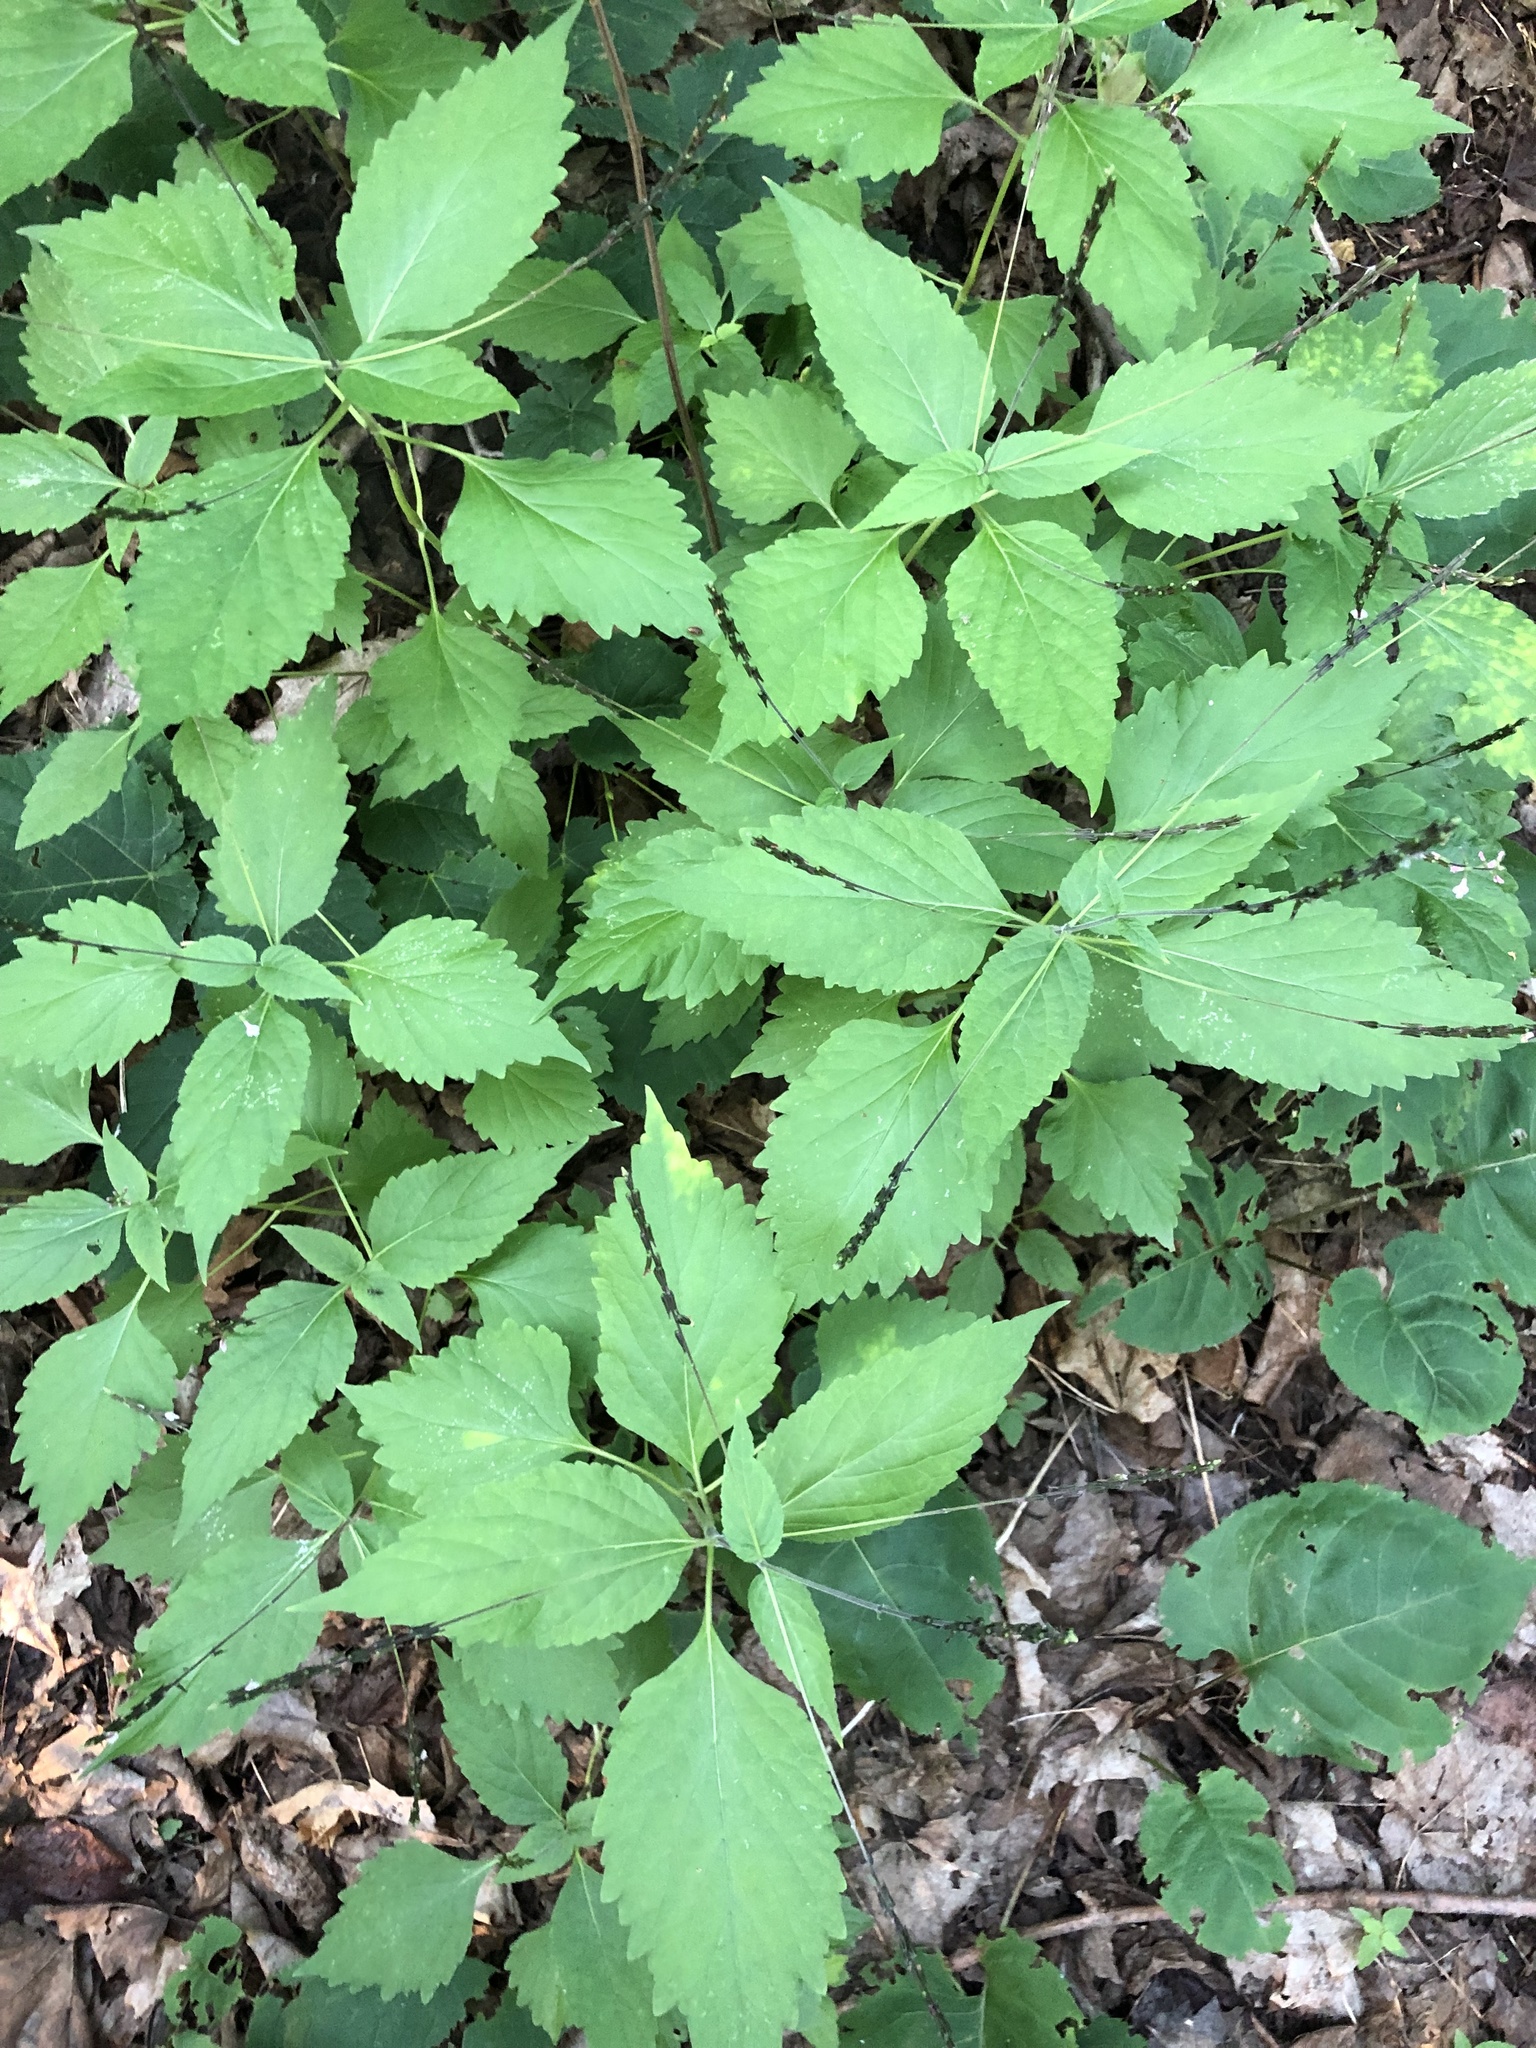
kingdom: Plantae
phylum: Tracheophyta
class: Magnoliopsida
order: Lamiales
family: Phrymaceae
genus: Phryma
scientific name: Phryma leptostachya
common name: American lopseed
